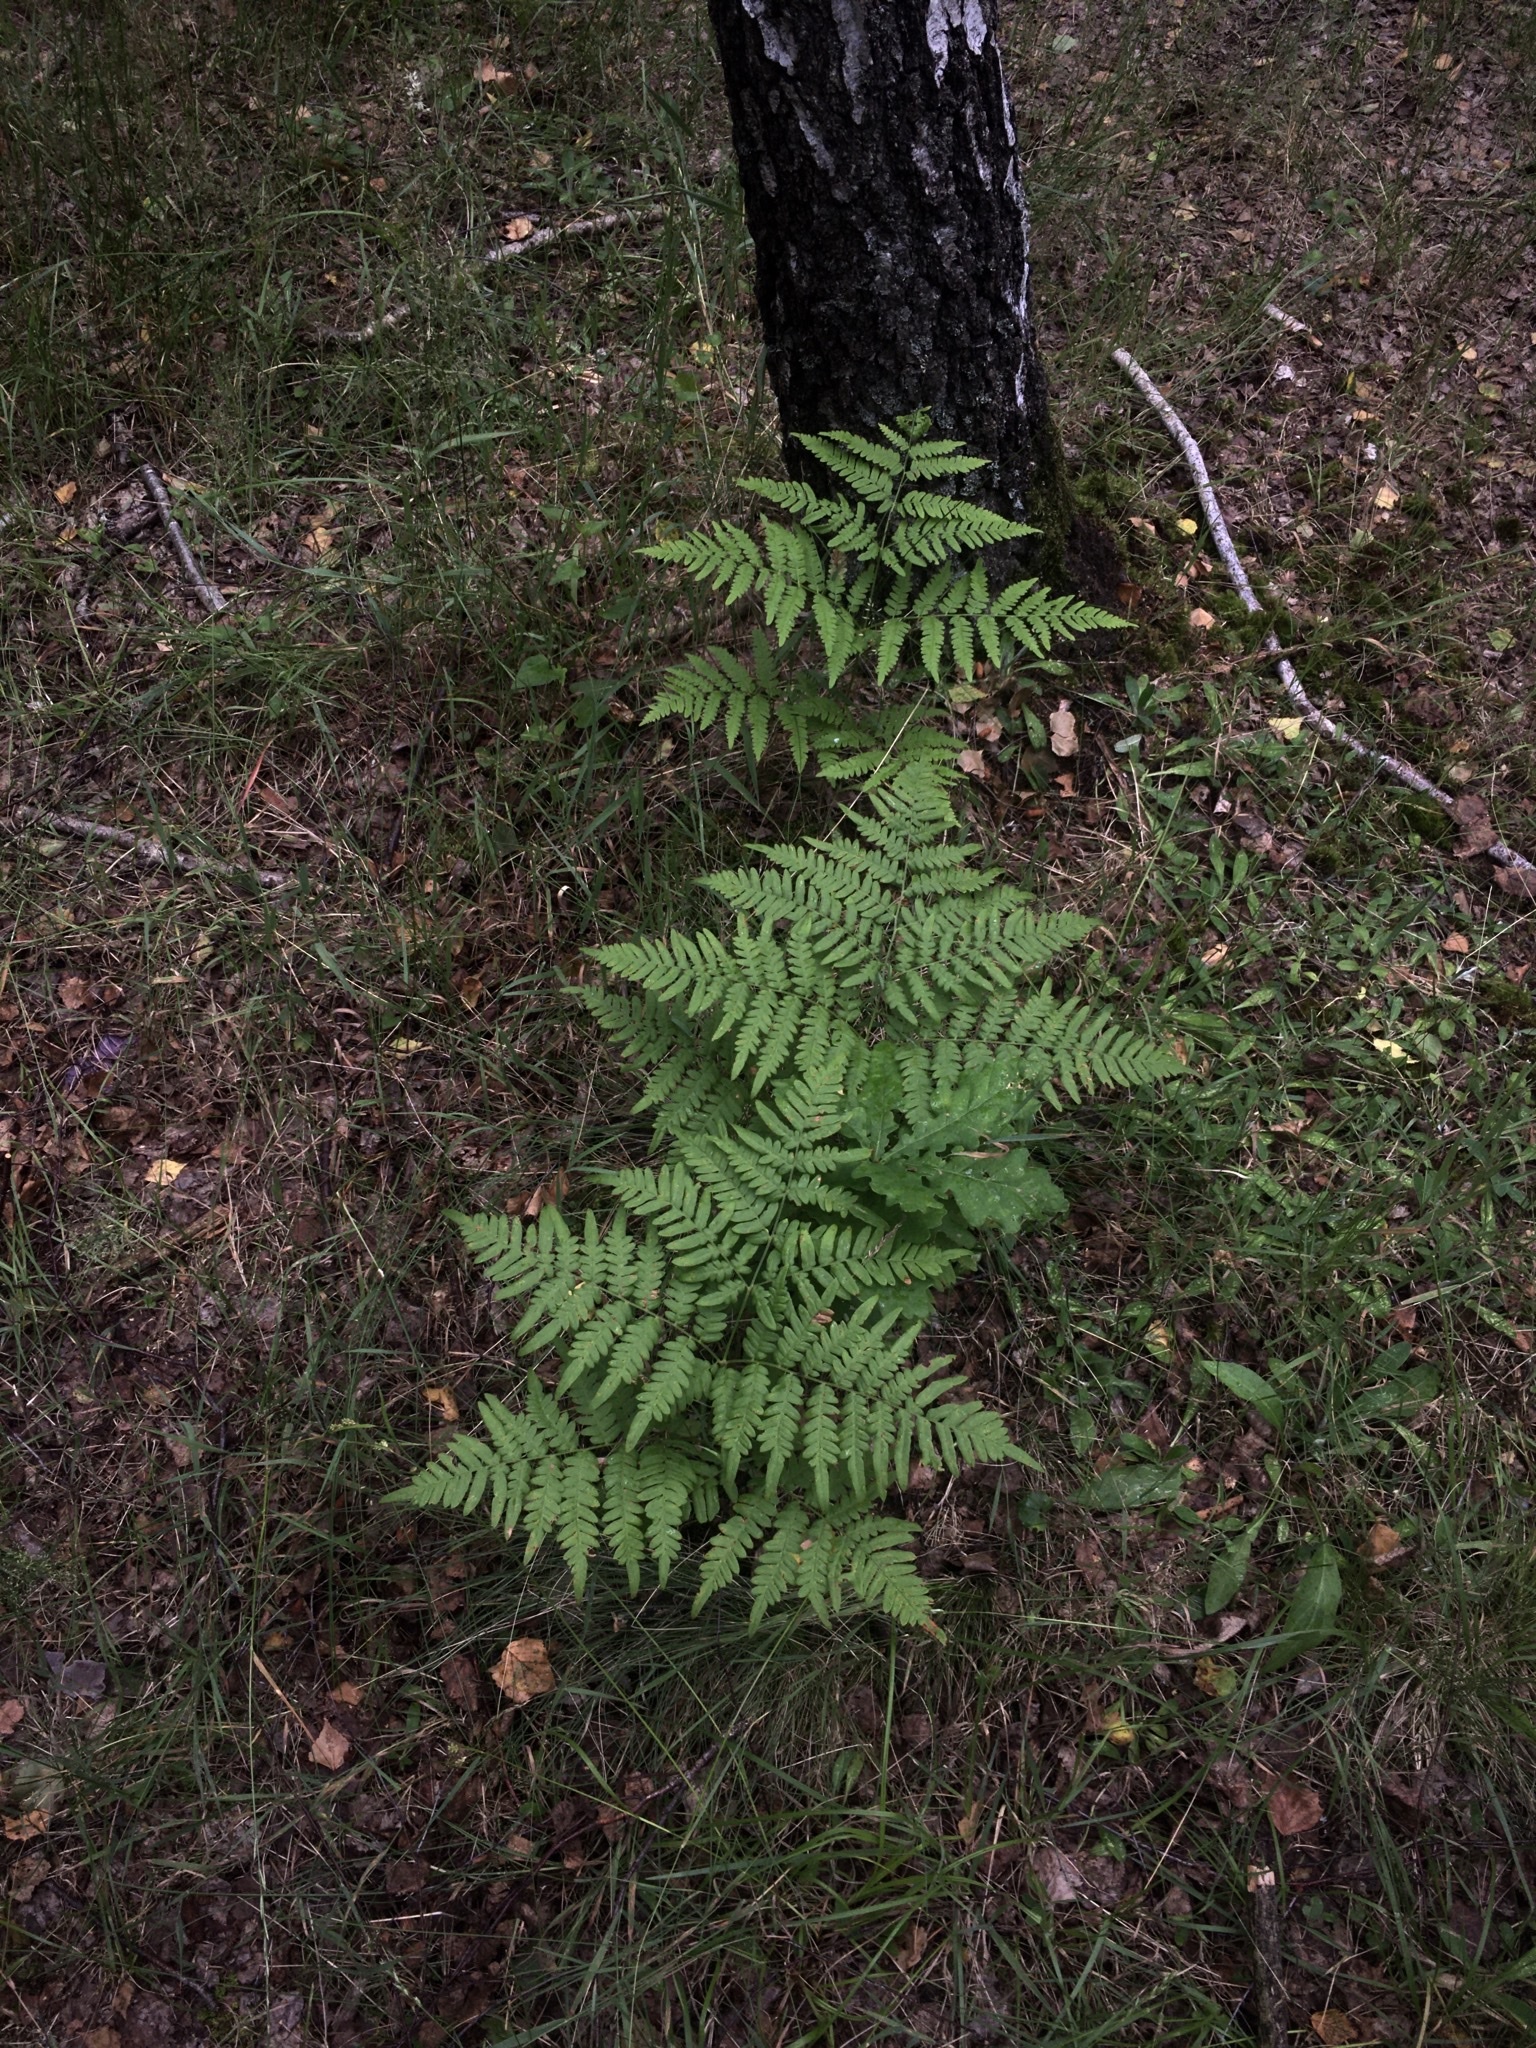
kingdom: Plantae
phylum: Tracheophyta
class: Polypodiopsida
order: Polypodiales
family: Dennstaedtiaceae
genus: Pteridium
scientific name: Pteridium aquilinum
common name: Bracken
